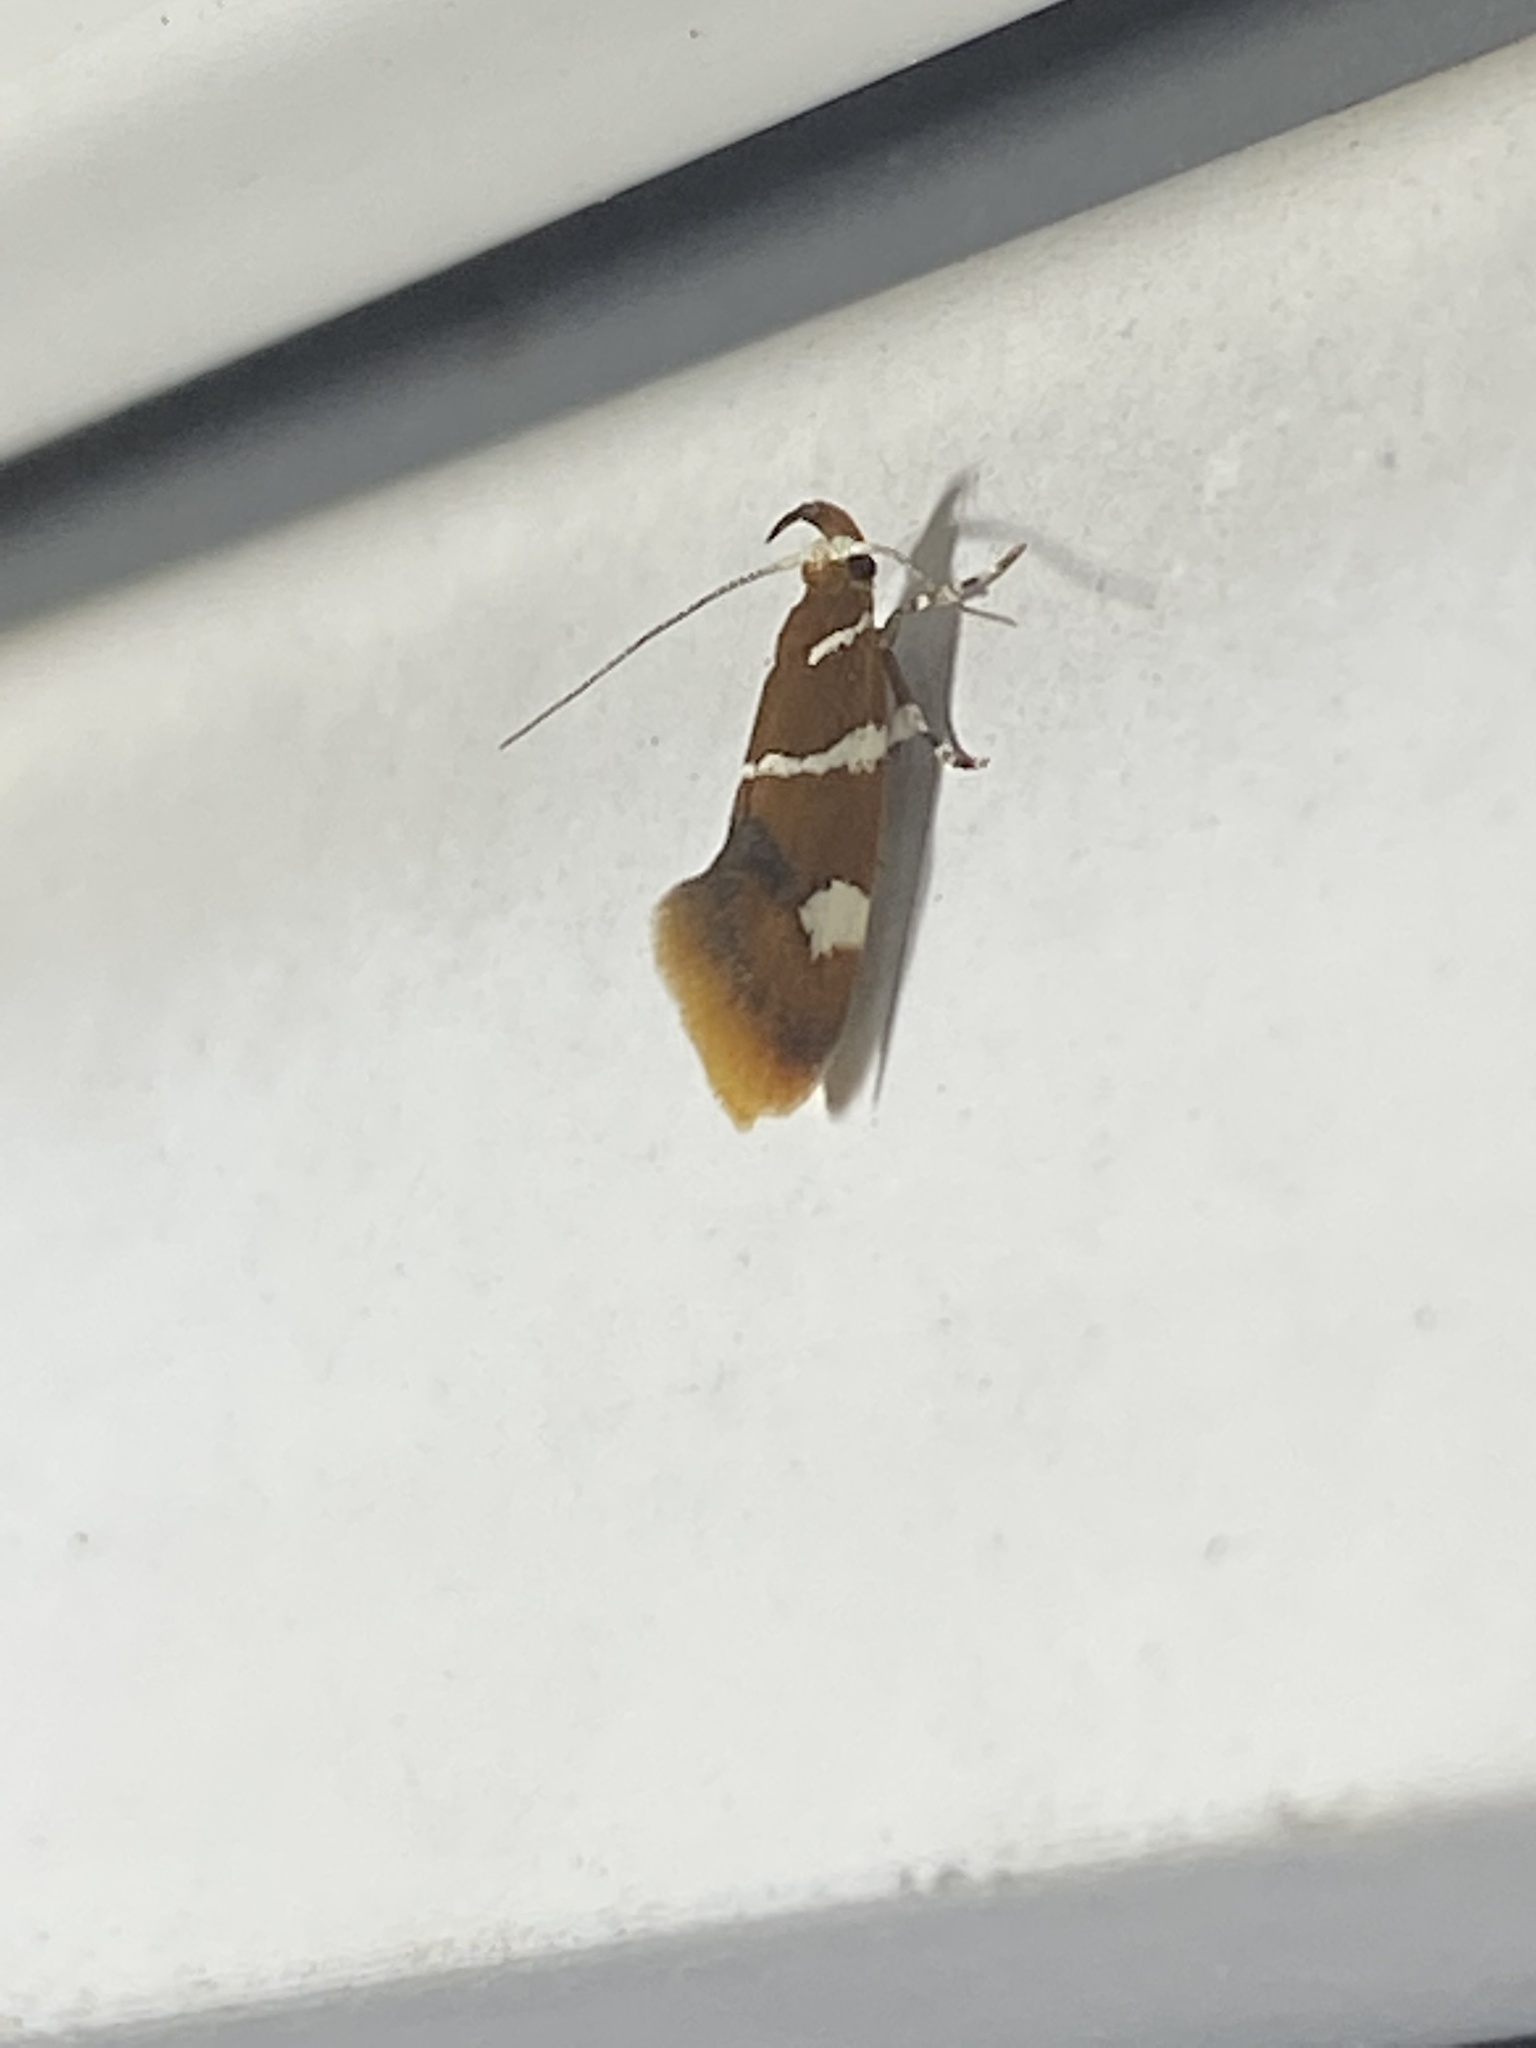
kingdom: Animalia
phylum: Arthropoda
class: Insecta
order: Lepidoptera
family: Oecophoridae
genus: Promalactis
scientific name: Promalactis suzukiella
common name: Moth
